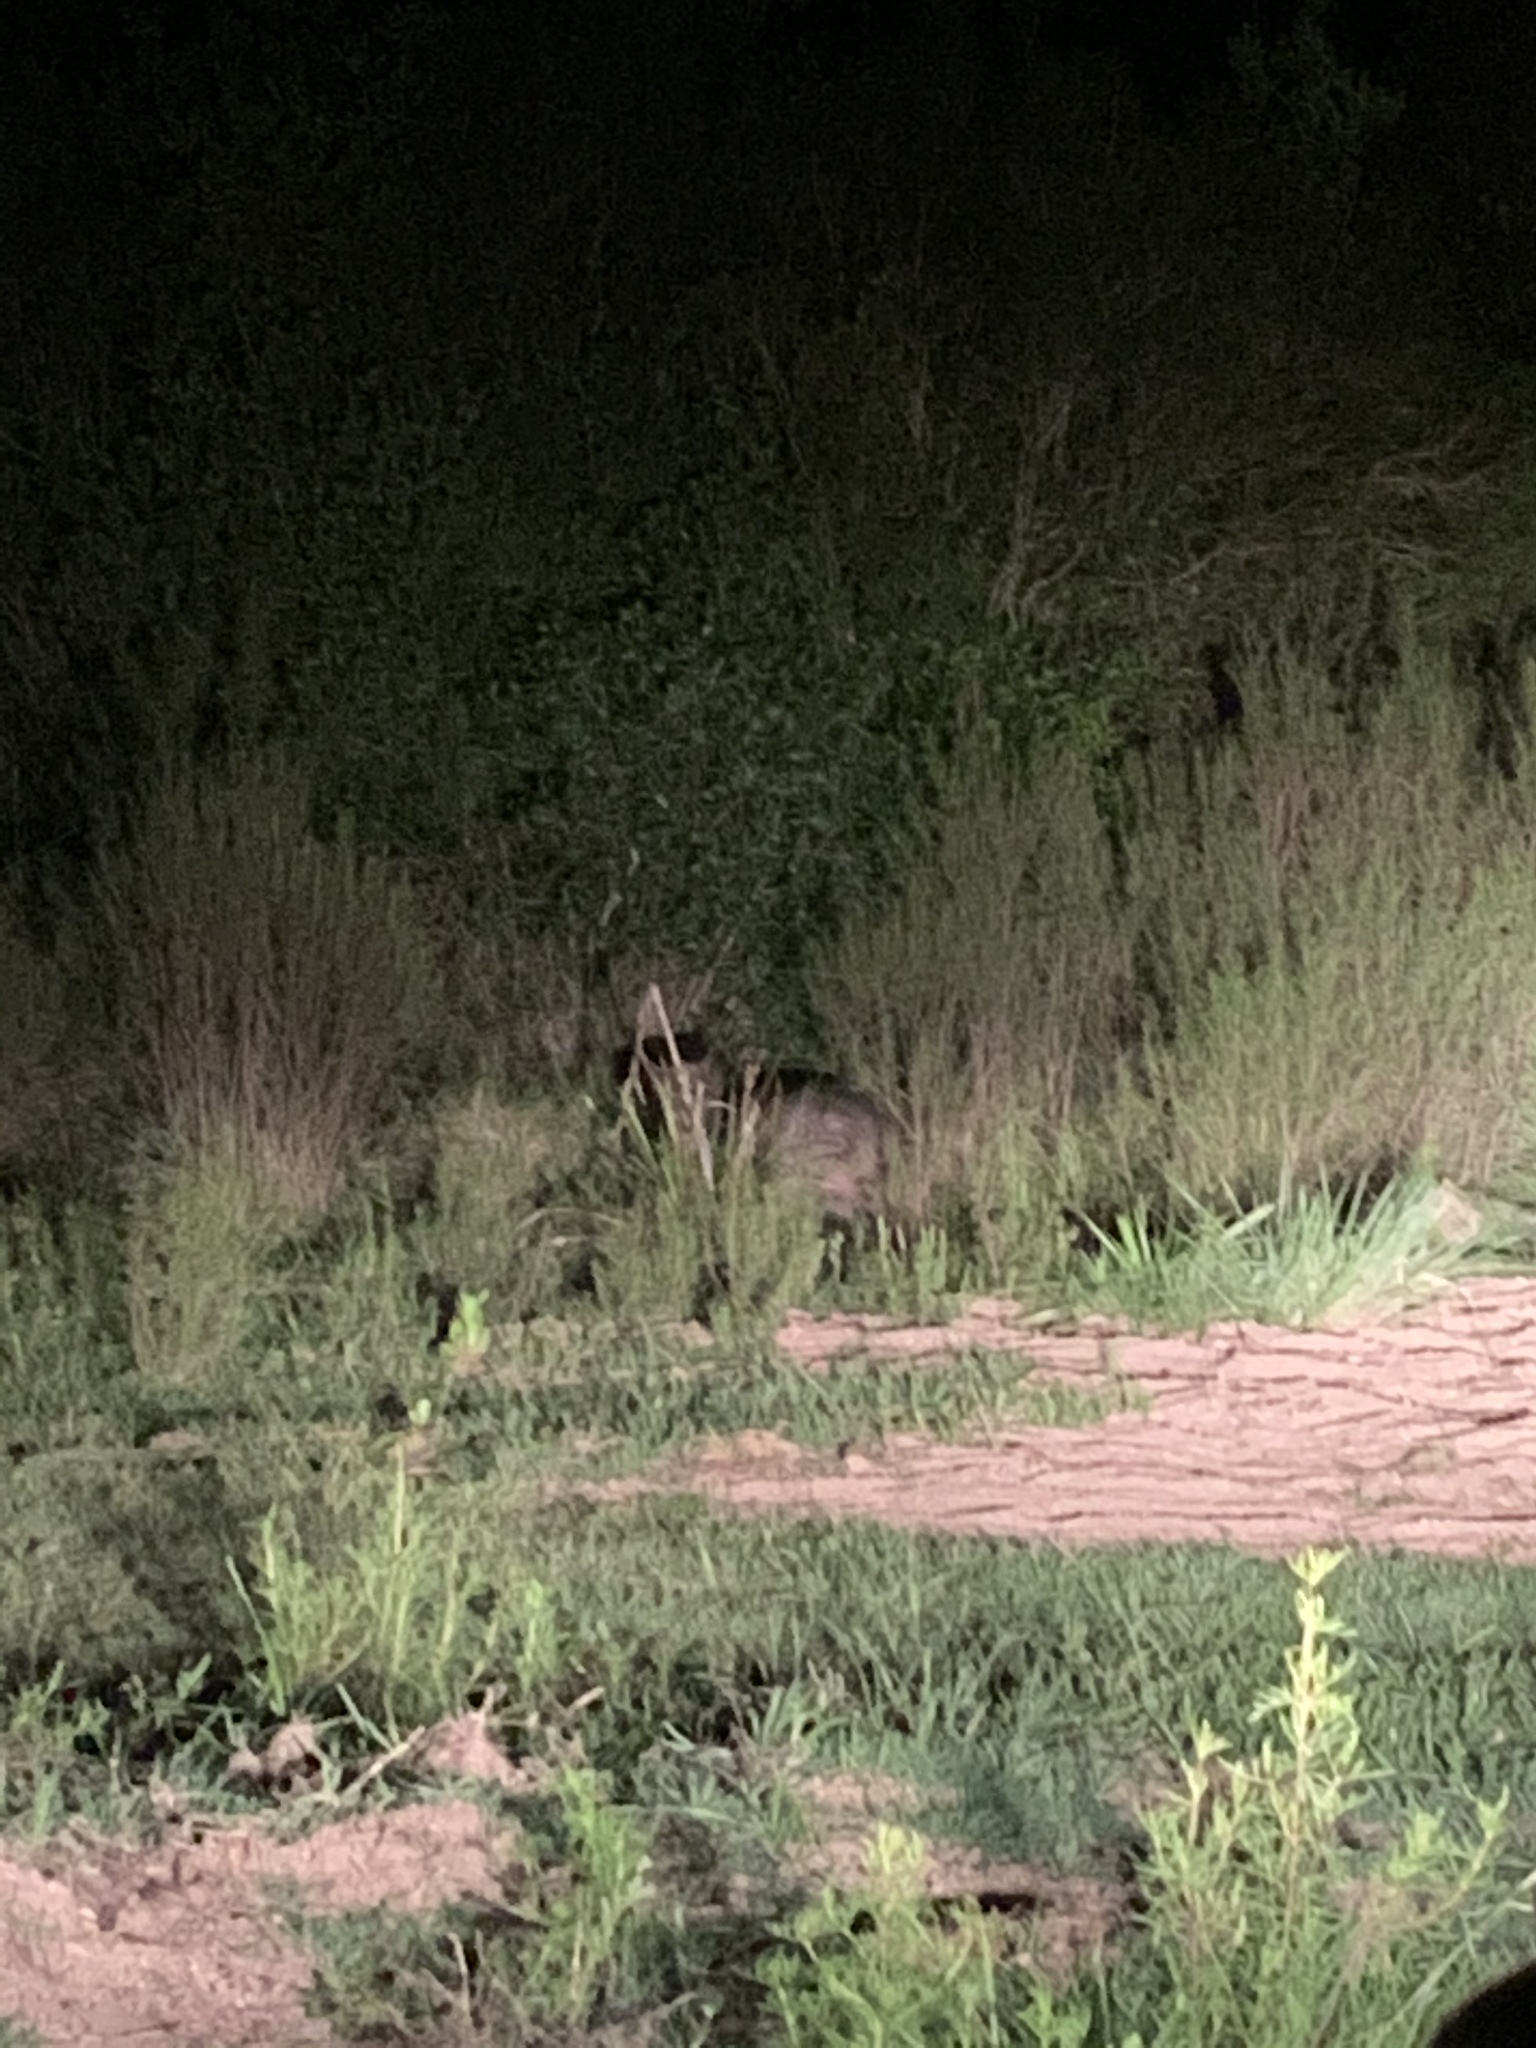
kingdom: Animalia
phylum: Chordata
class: Mammalia
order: Rodentia
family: Caviidae
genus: Hydrochoerus
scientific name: Hydrochoerus hydrochaeris
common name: Capybara
